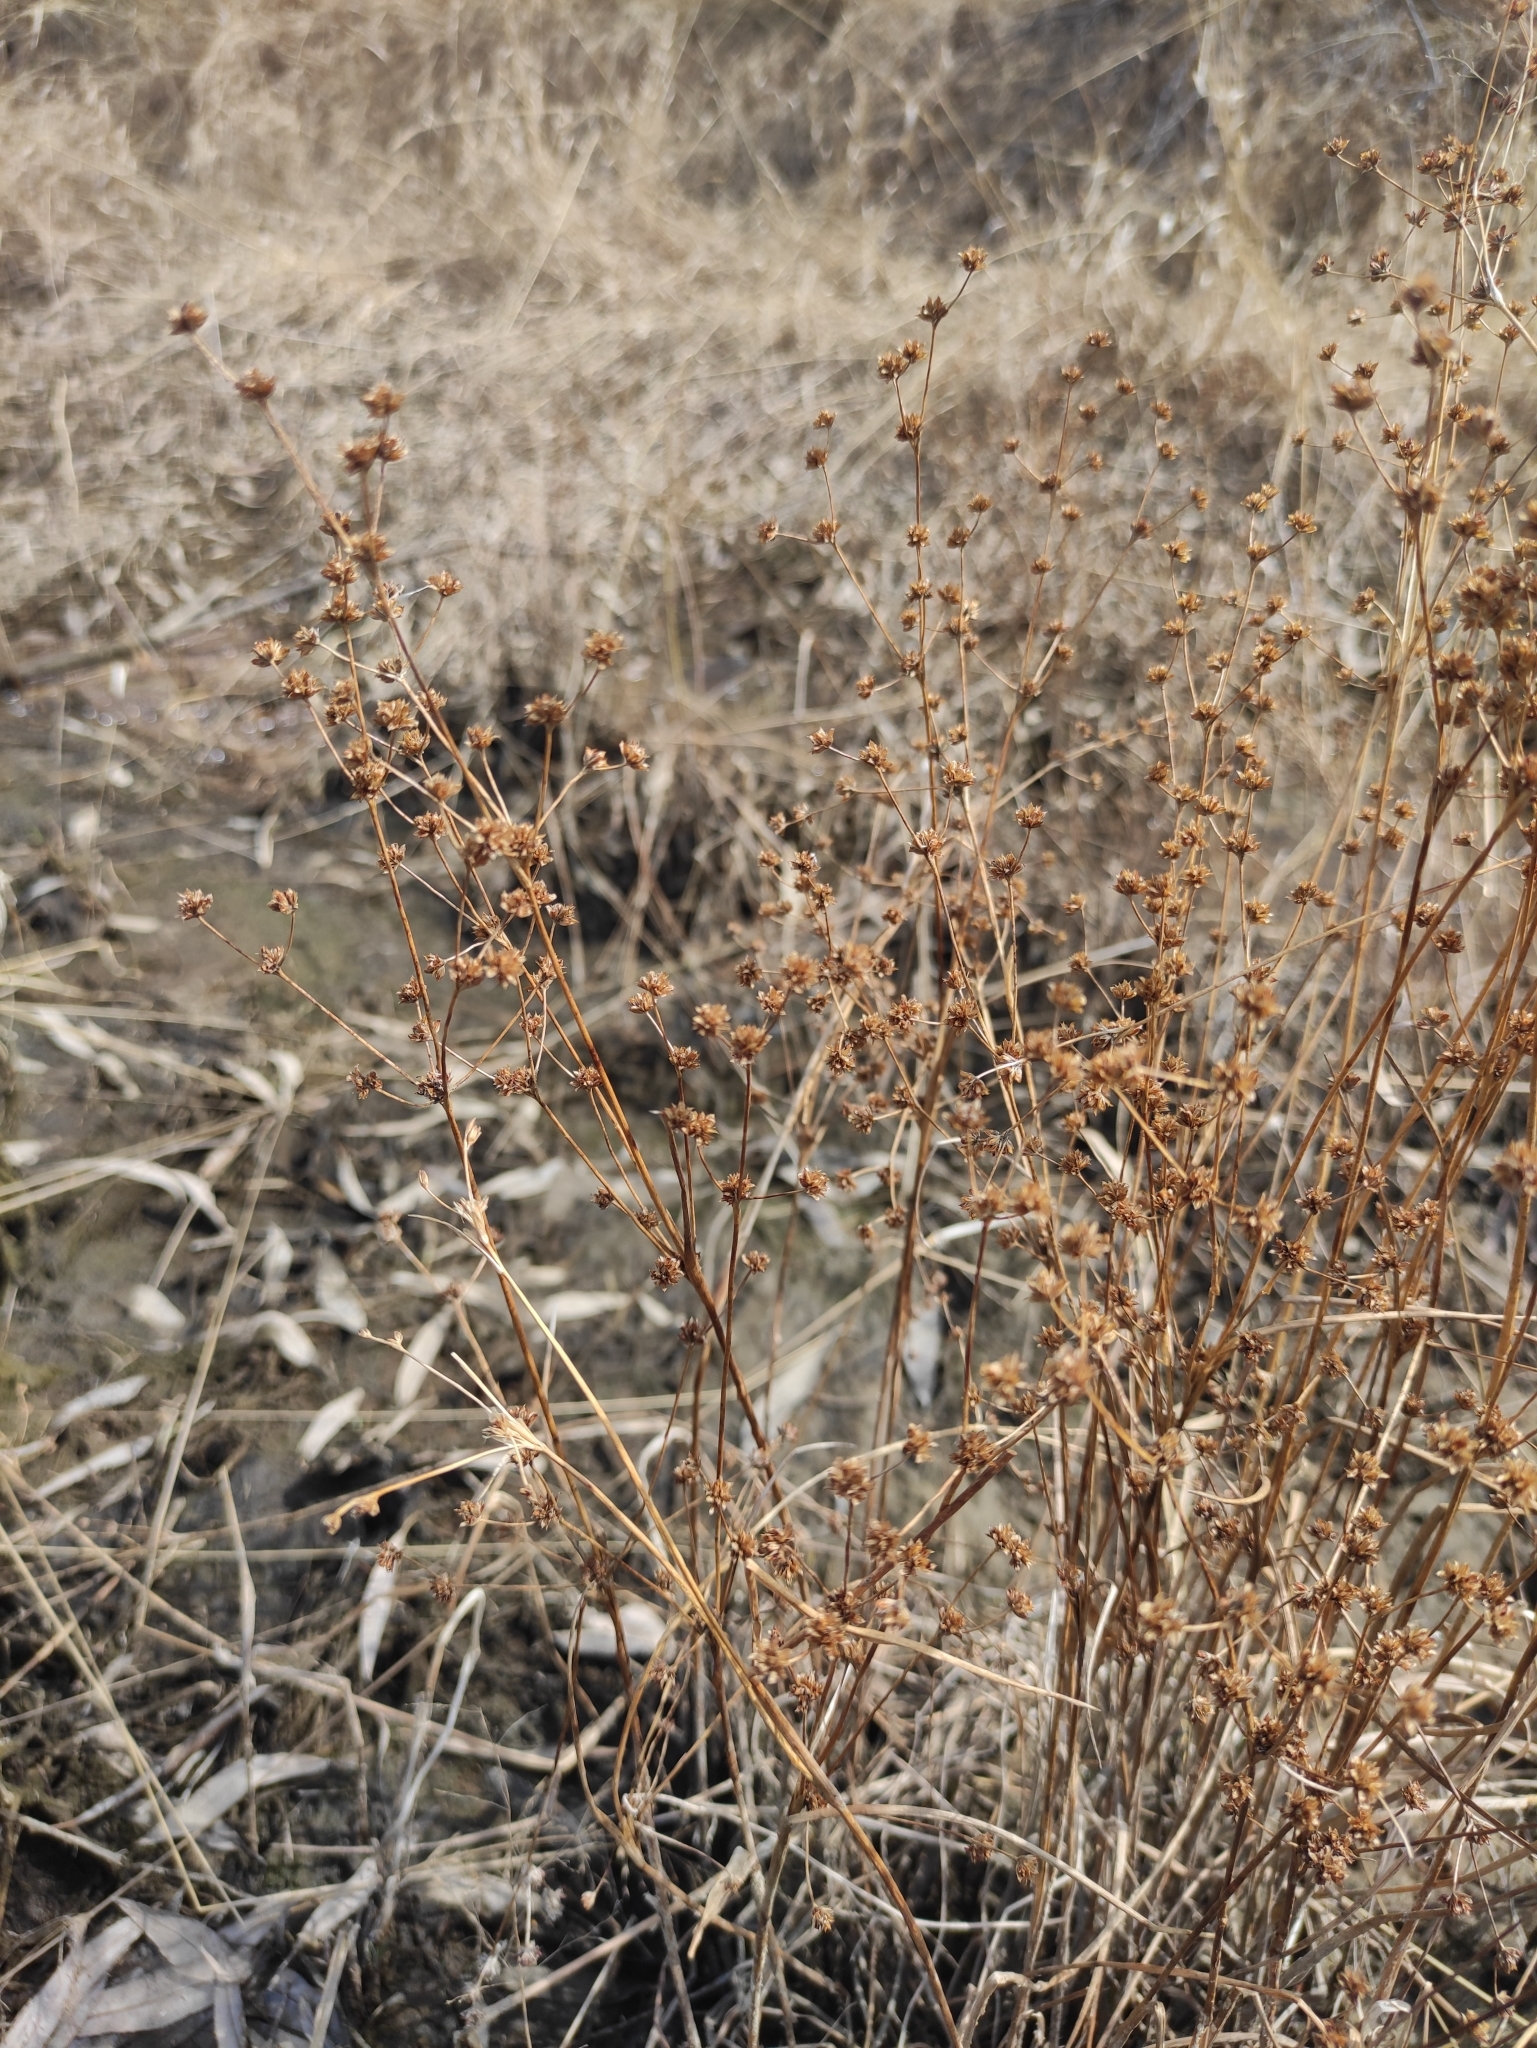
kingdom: Plantae
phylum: Tracheophyta
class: Liliopsida
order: Poales
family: Juncaceae
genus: Juncus
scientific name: Juncus articulatus
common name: Jointed rush
